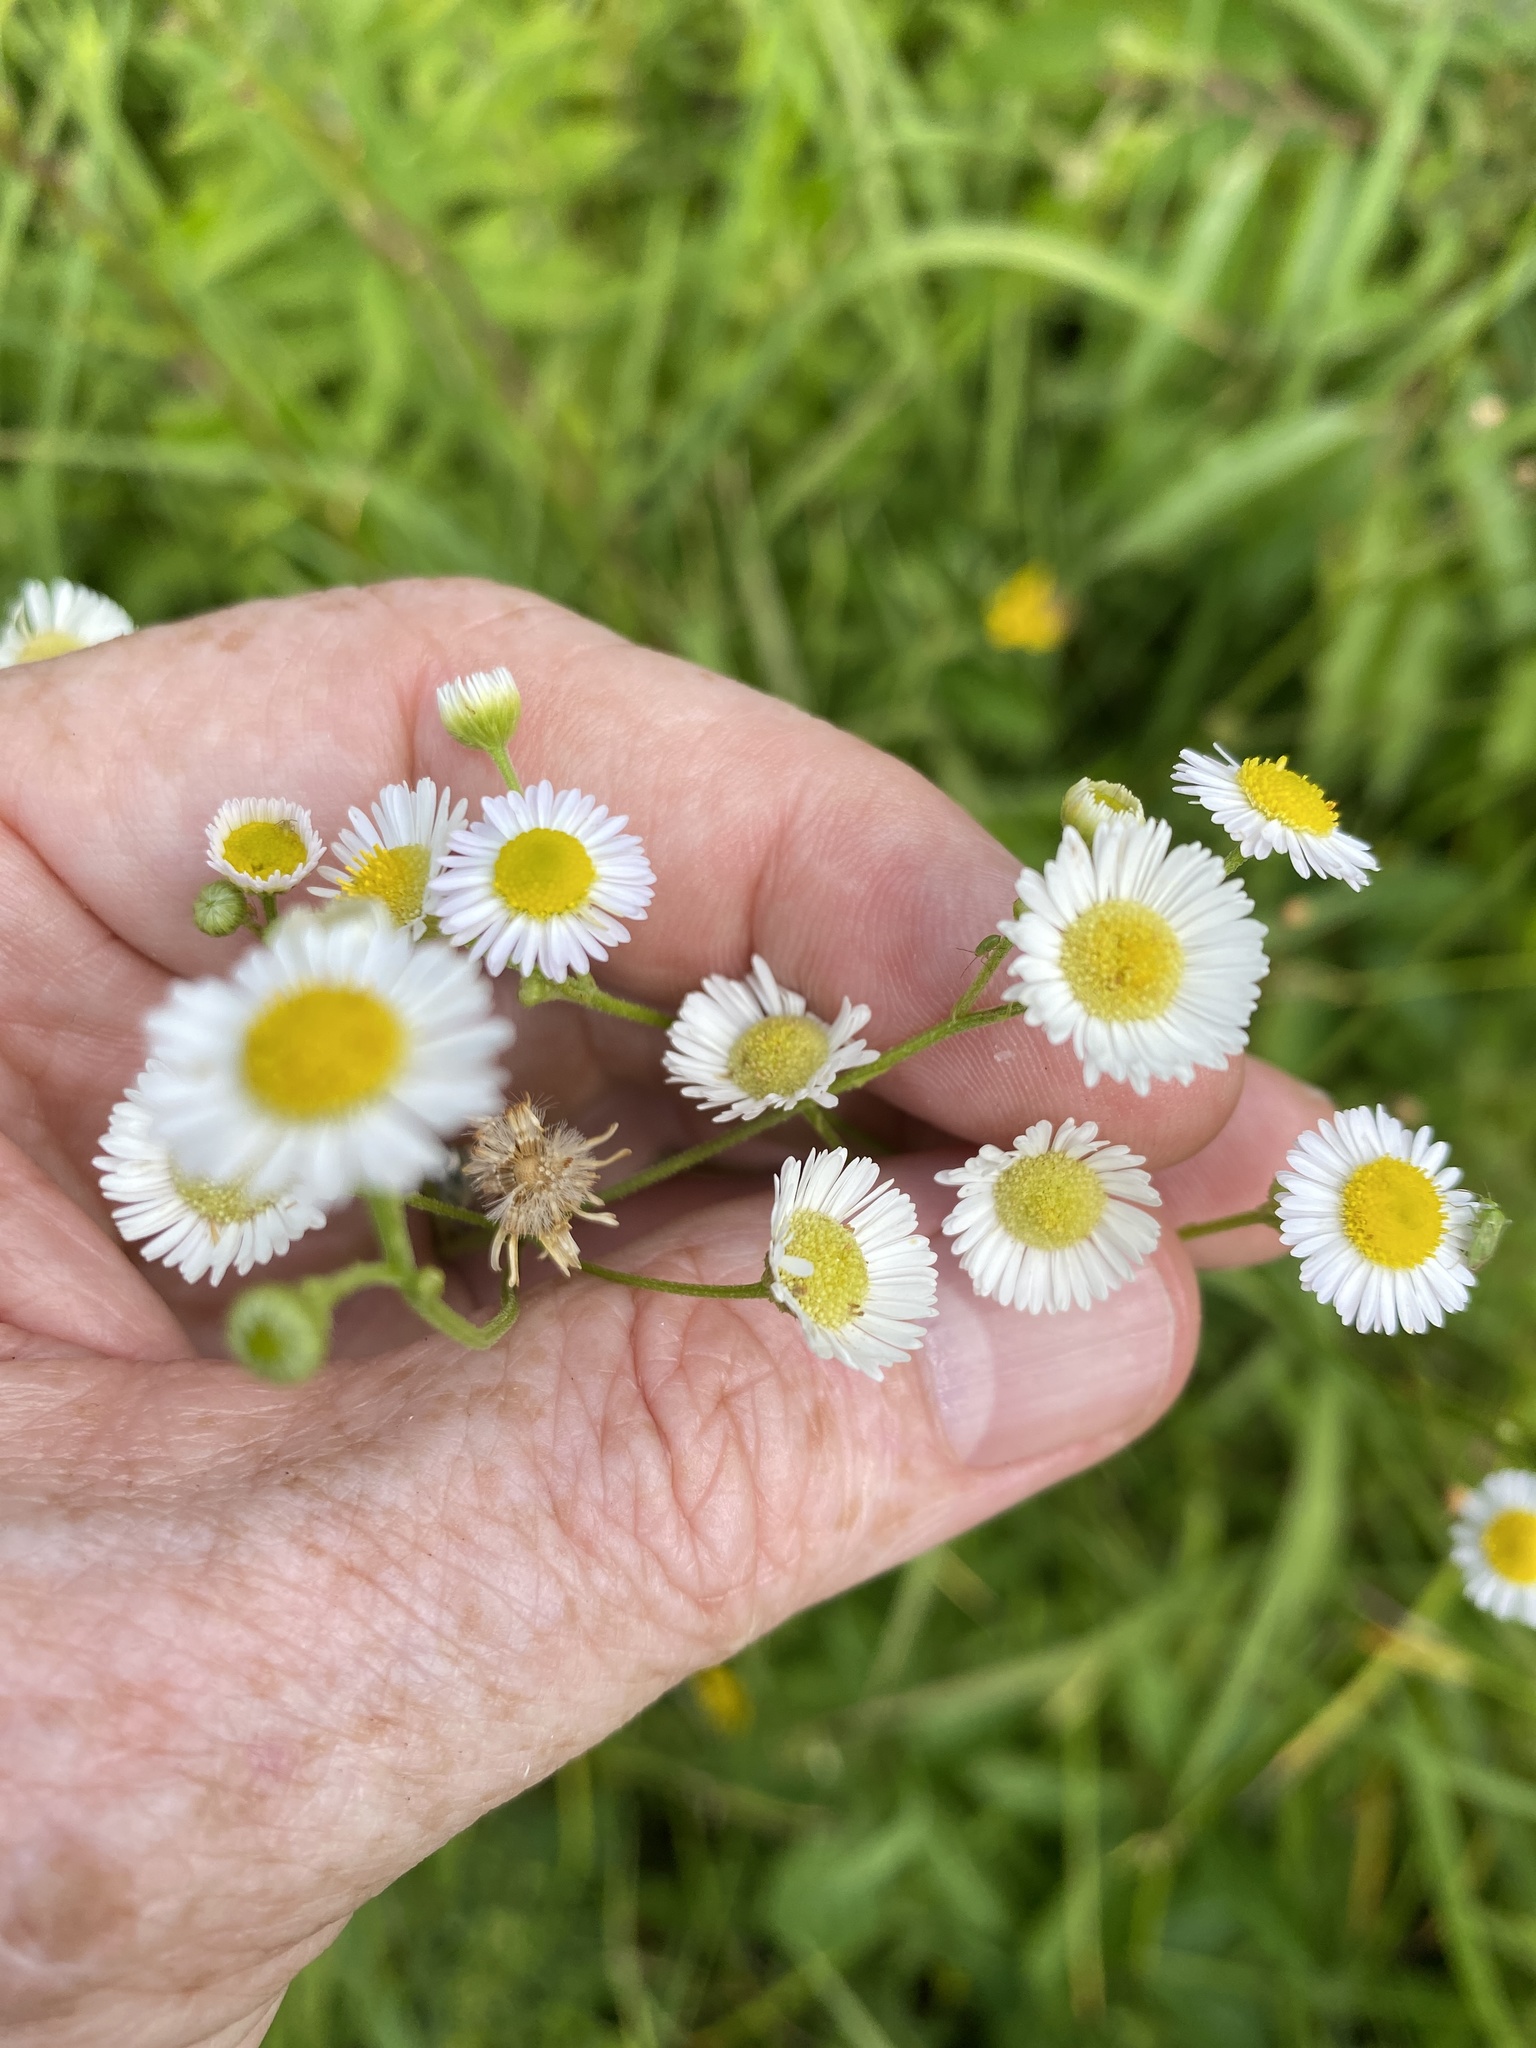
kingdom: Plantae
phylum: Tracheophyta
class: Magnoliopsida
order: Asterales
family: Asteraceae
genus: Erigeron
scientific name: Erigeron strigosus
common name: Common eastern fleabane
